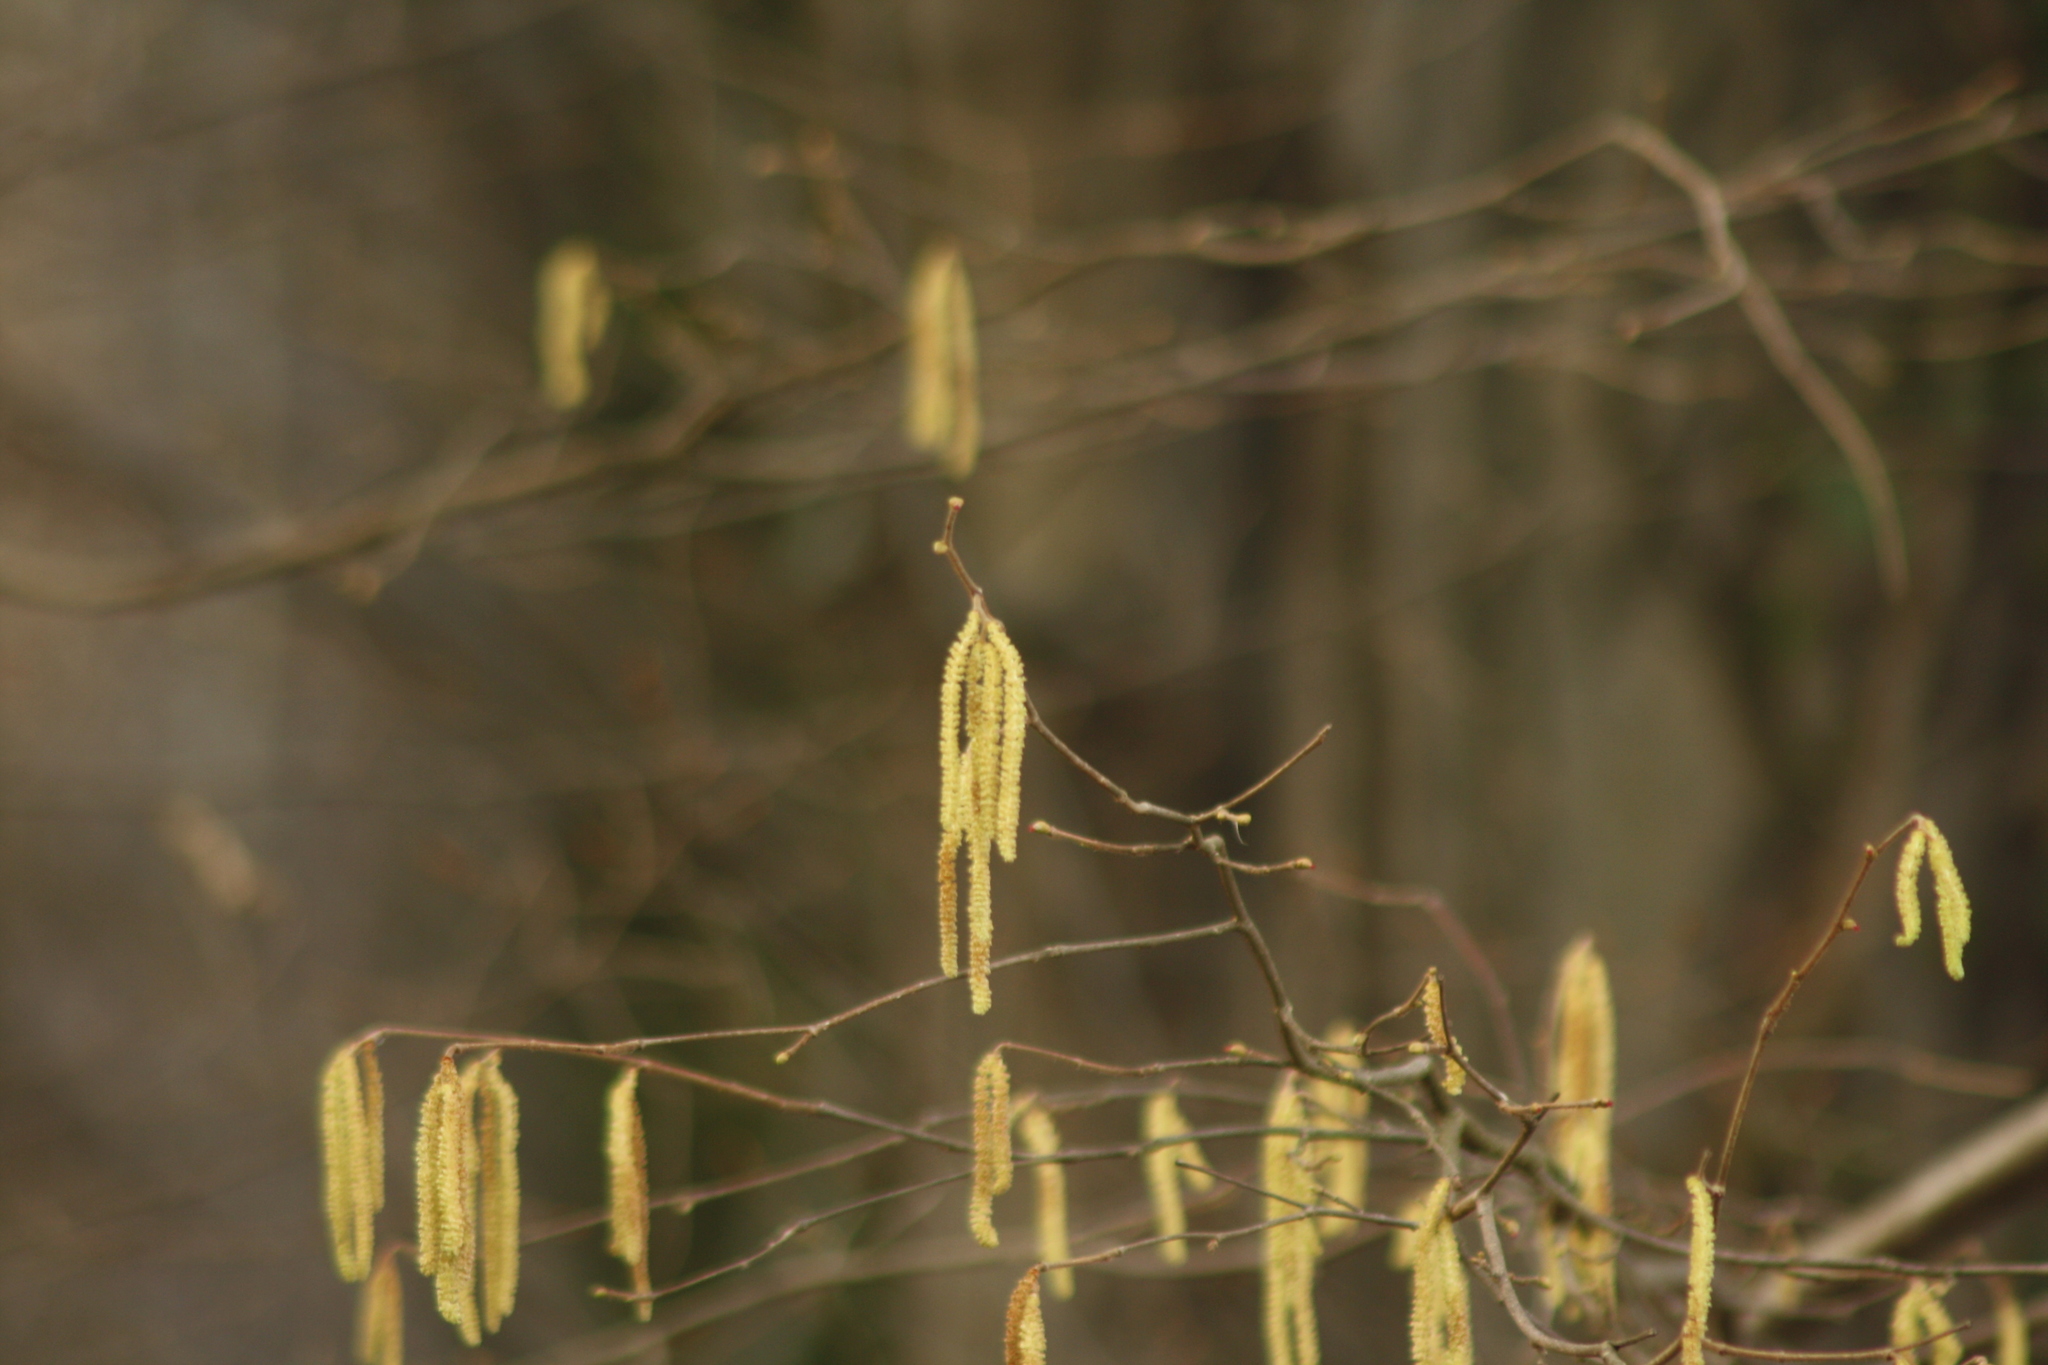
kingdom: Plantae
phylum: Tracheophyta
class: Magnoliopsida
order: Fagales
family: Betulaceae
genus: Corylus
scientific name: Corylus avellana
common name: European hazel
